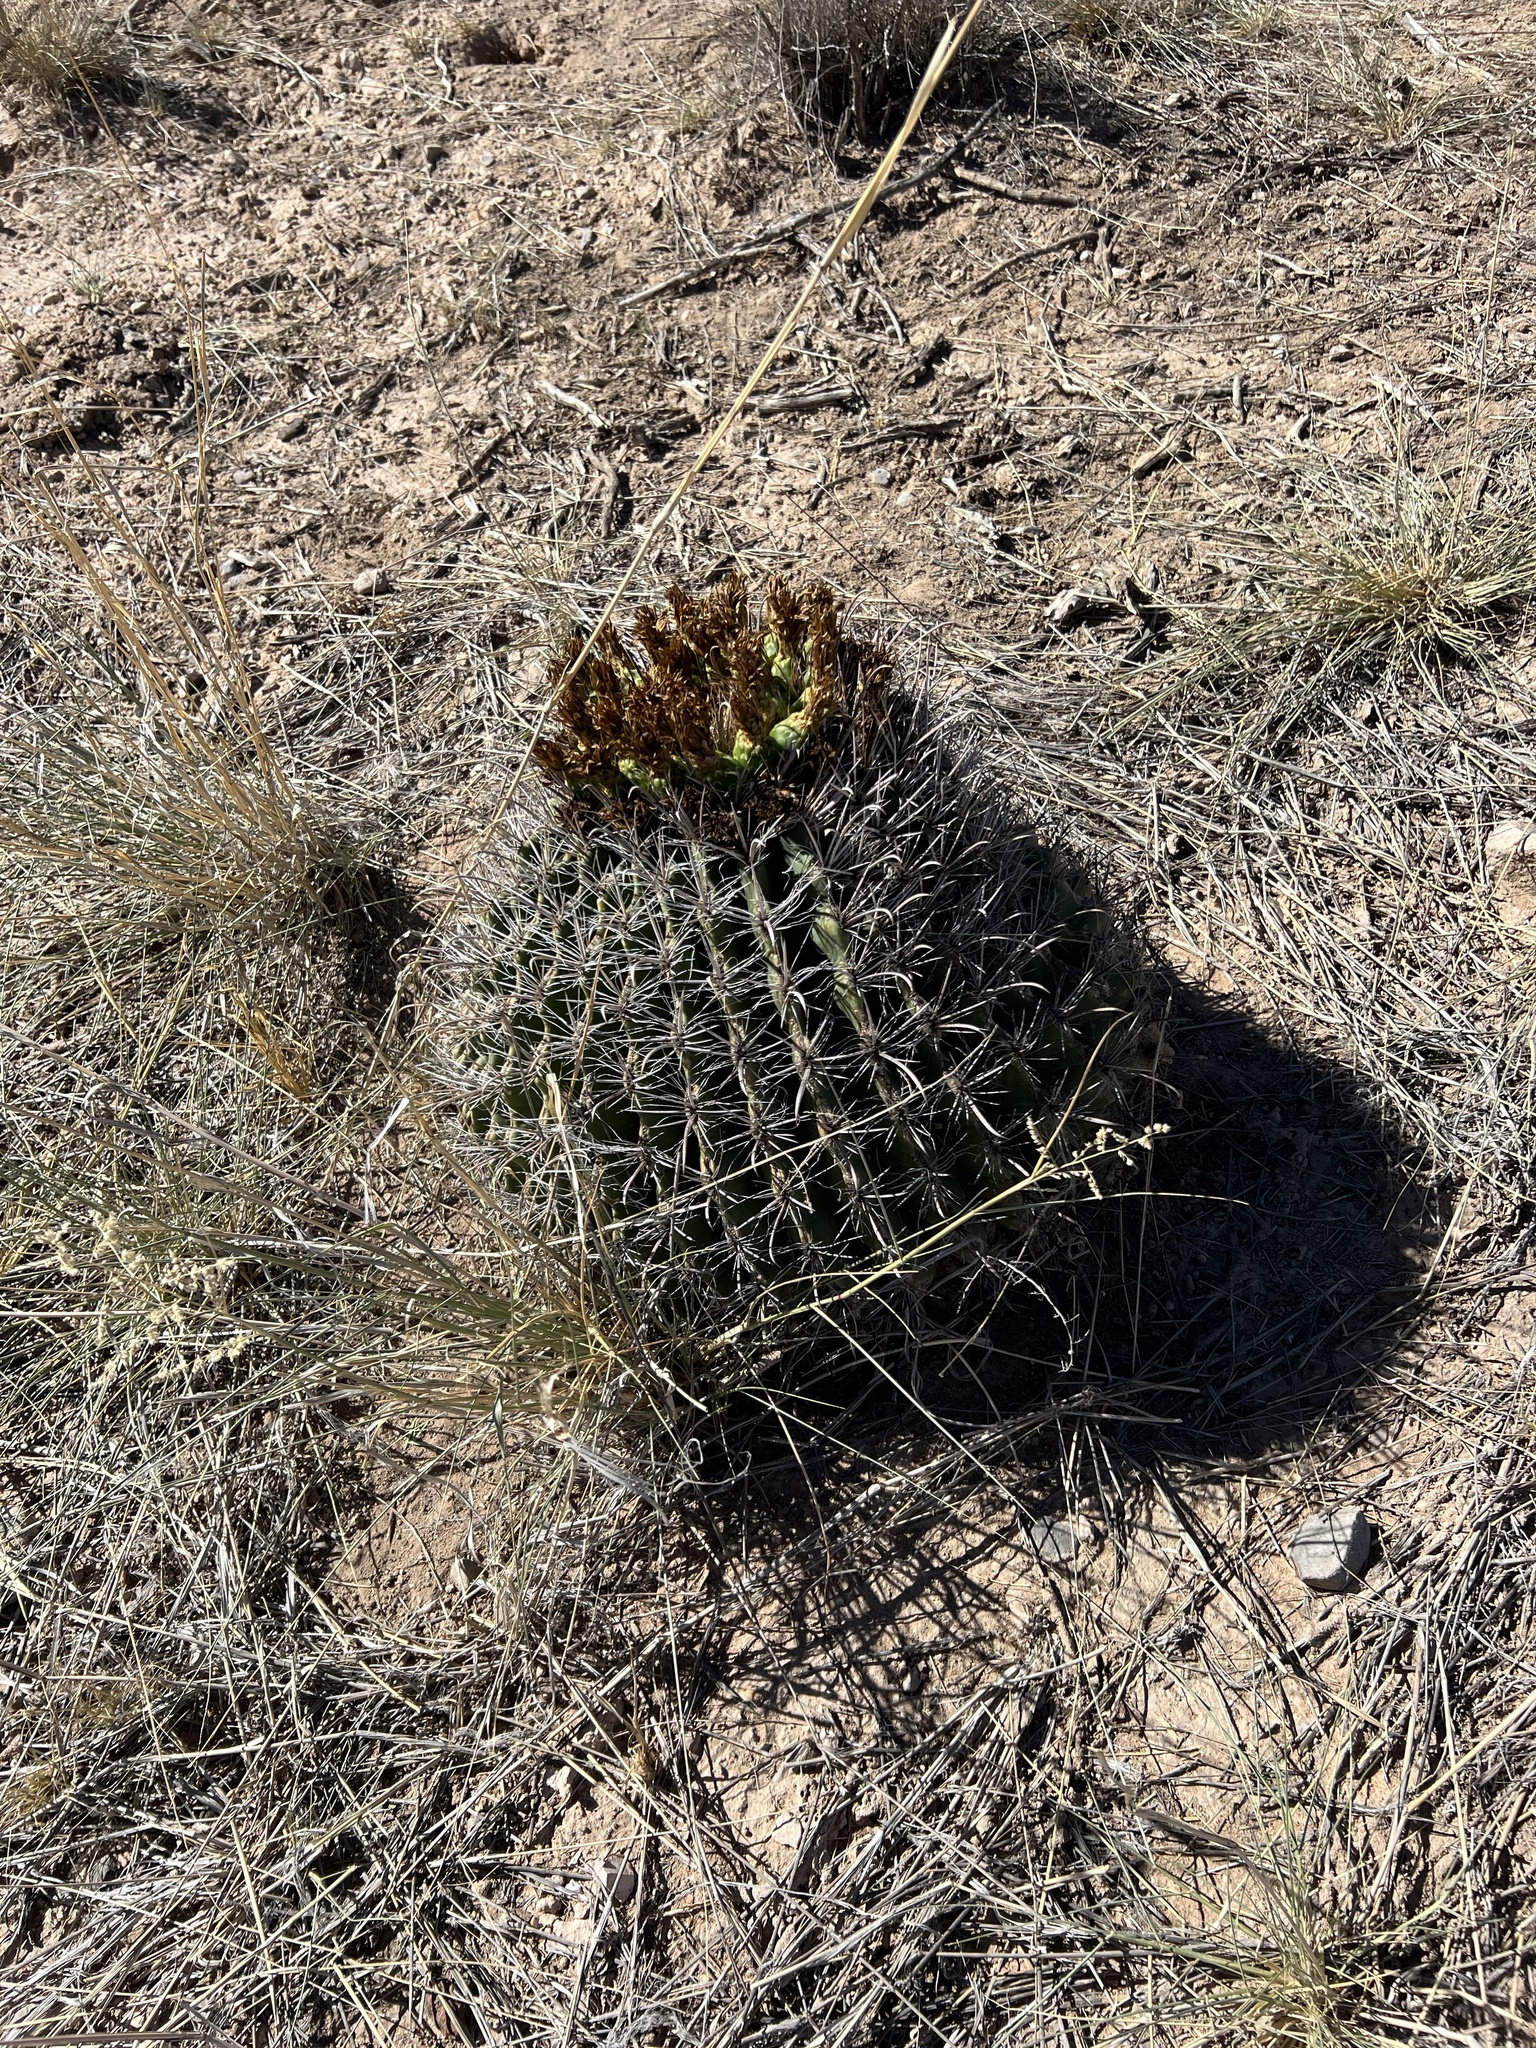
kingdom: Plantae
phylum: Tracheophyta
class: Magnoliopsida
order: Caryophyllales
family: Cactaceae
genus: Ferocactus
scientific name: Ferocactus wislizeni
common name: Candy barrel cactus
